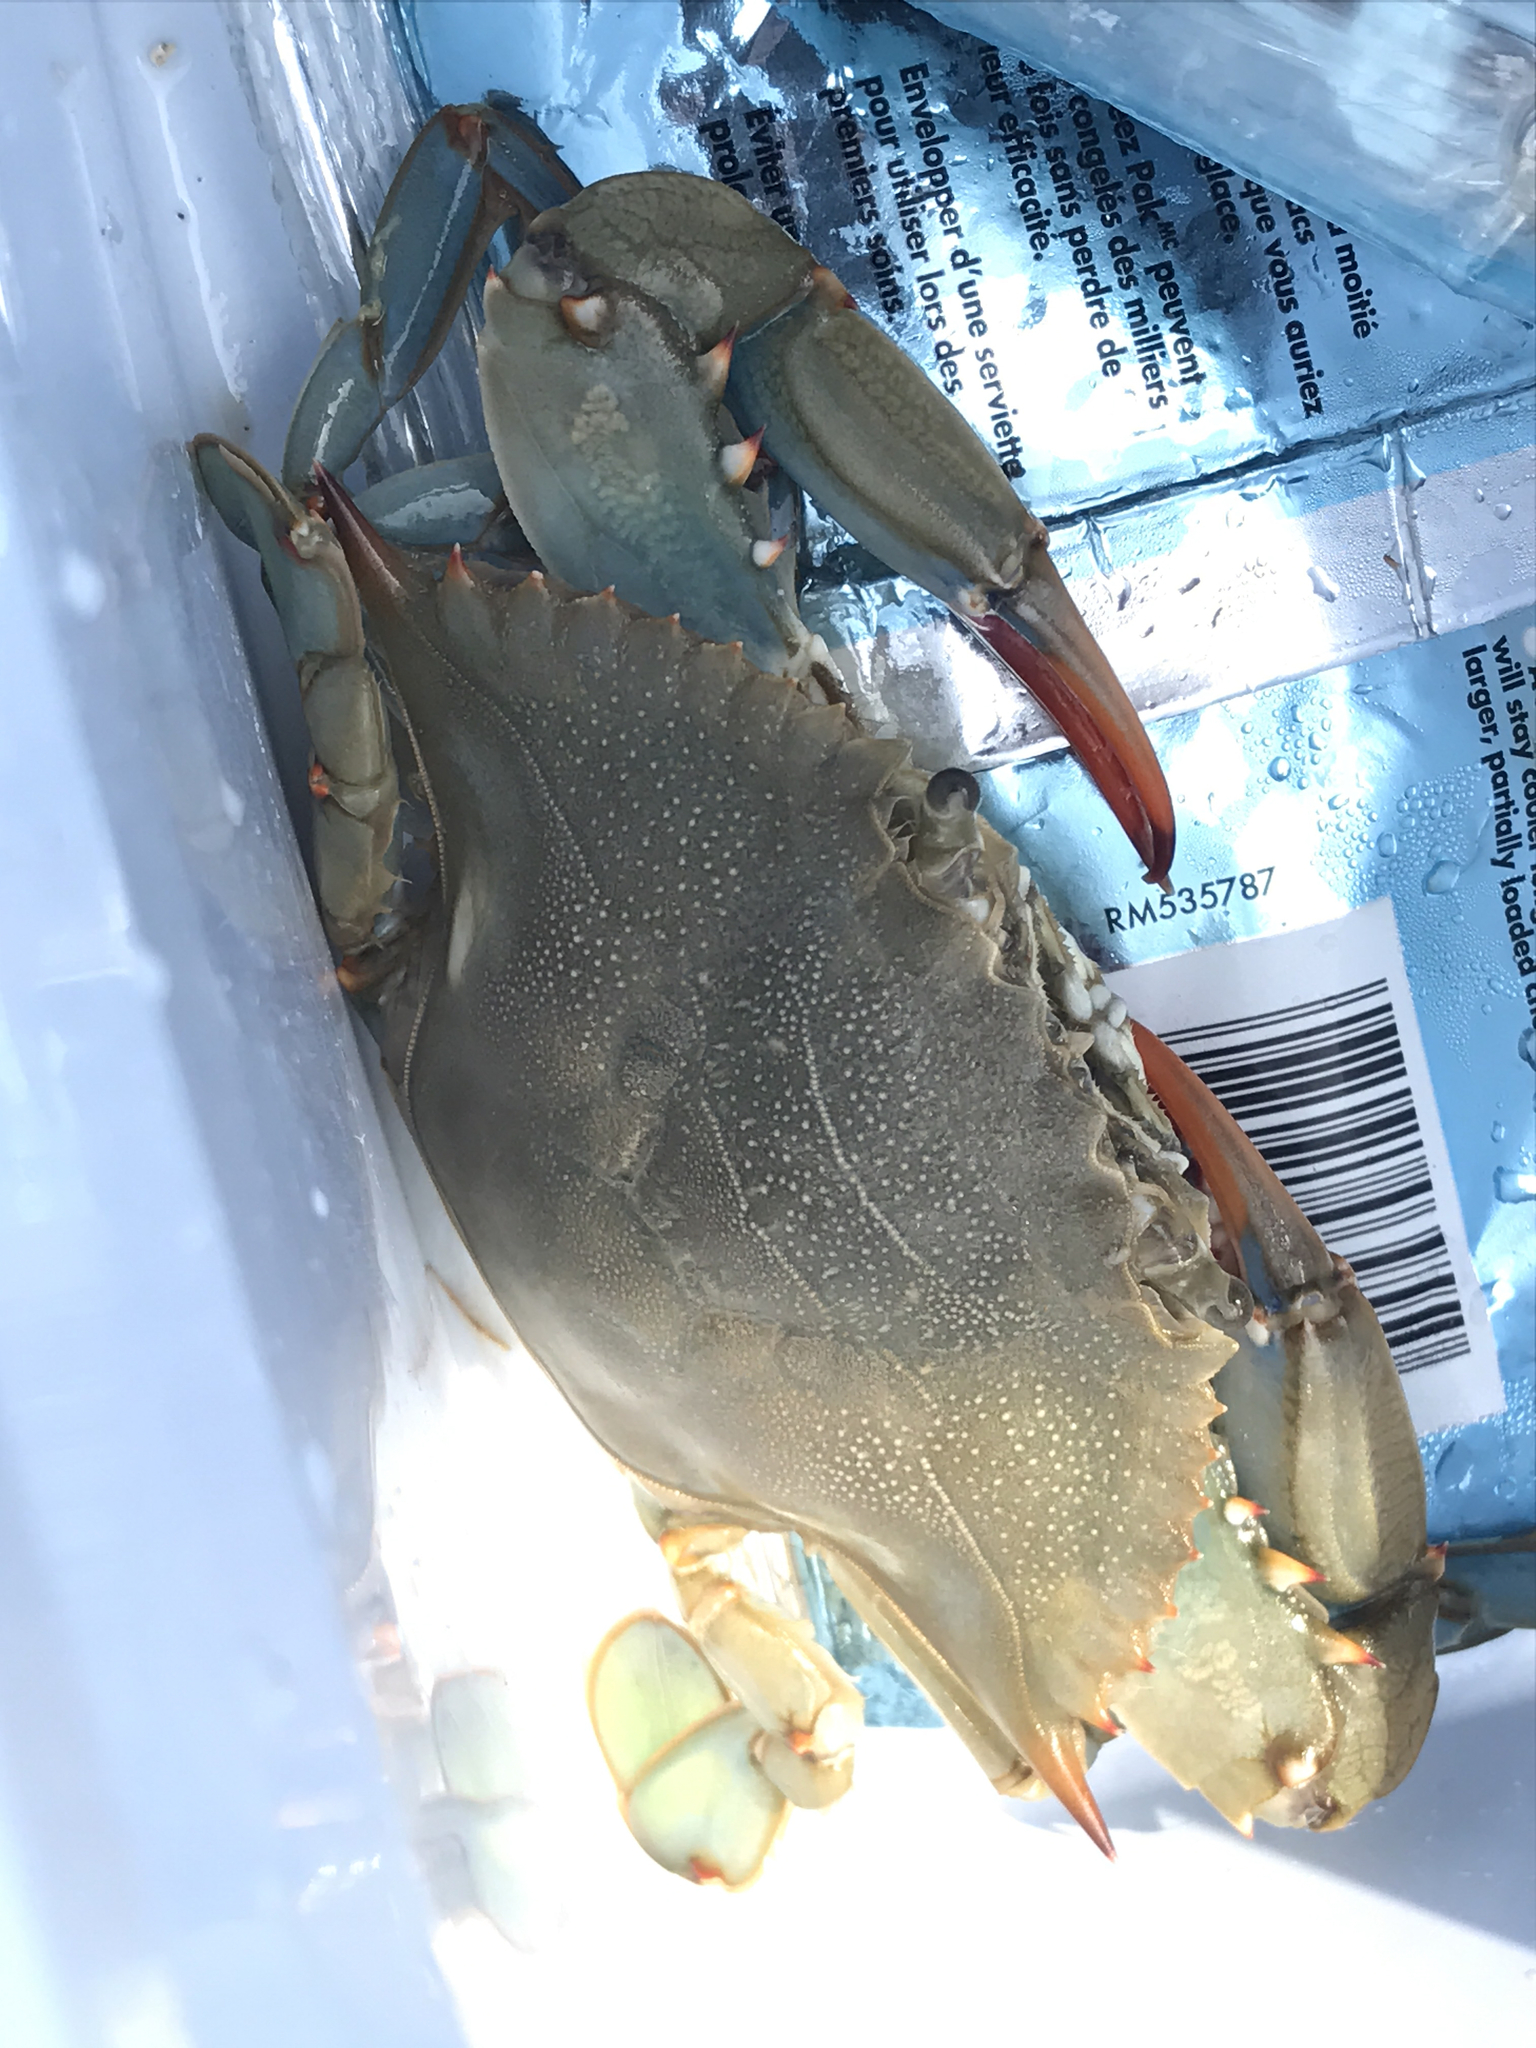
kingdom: Animalia
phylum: Arthropoda
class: Malacostraca
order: Decapoda
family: Portunidae
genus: Callinectes
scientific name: Callinectes sapidus
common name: Blue crab
